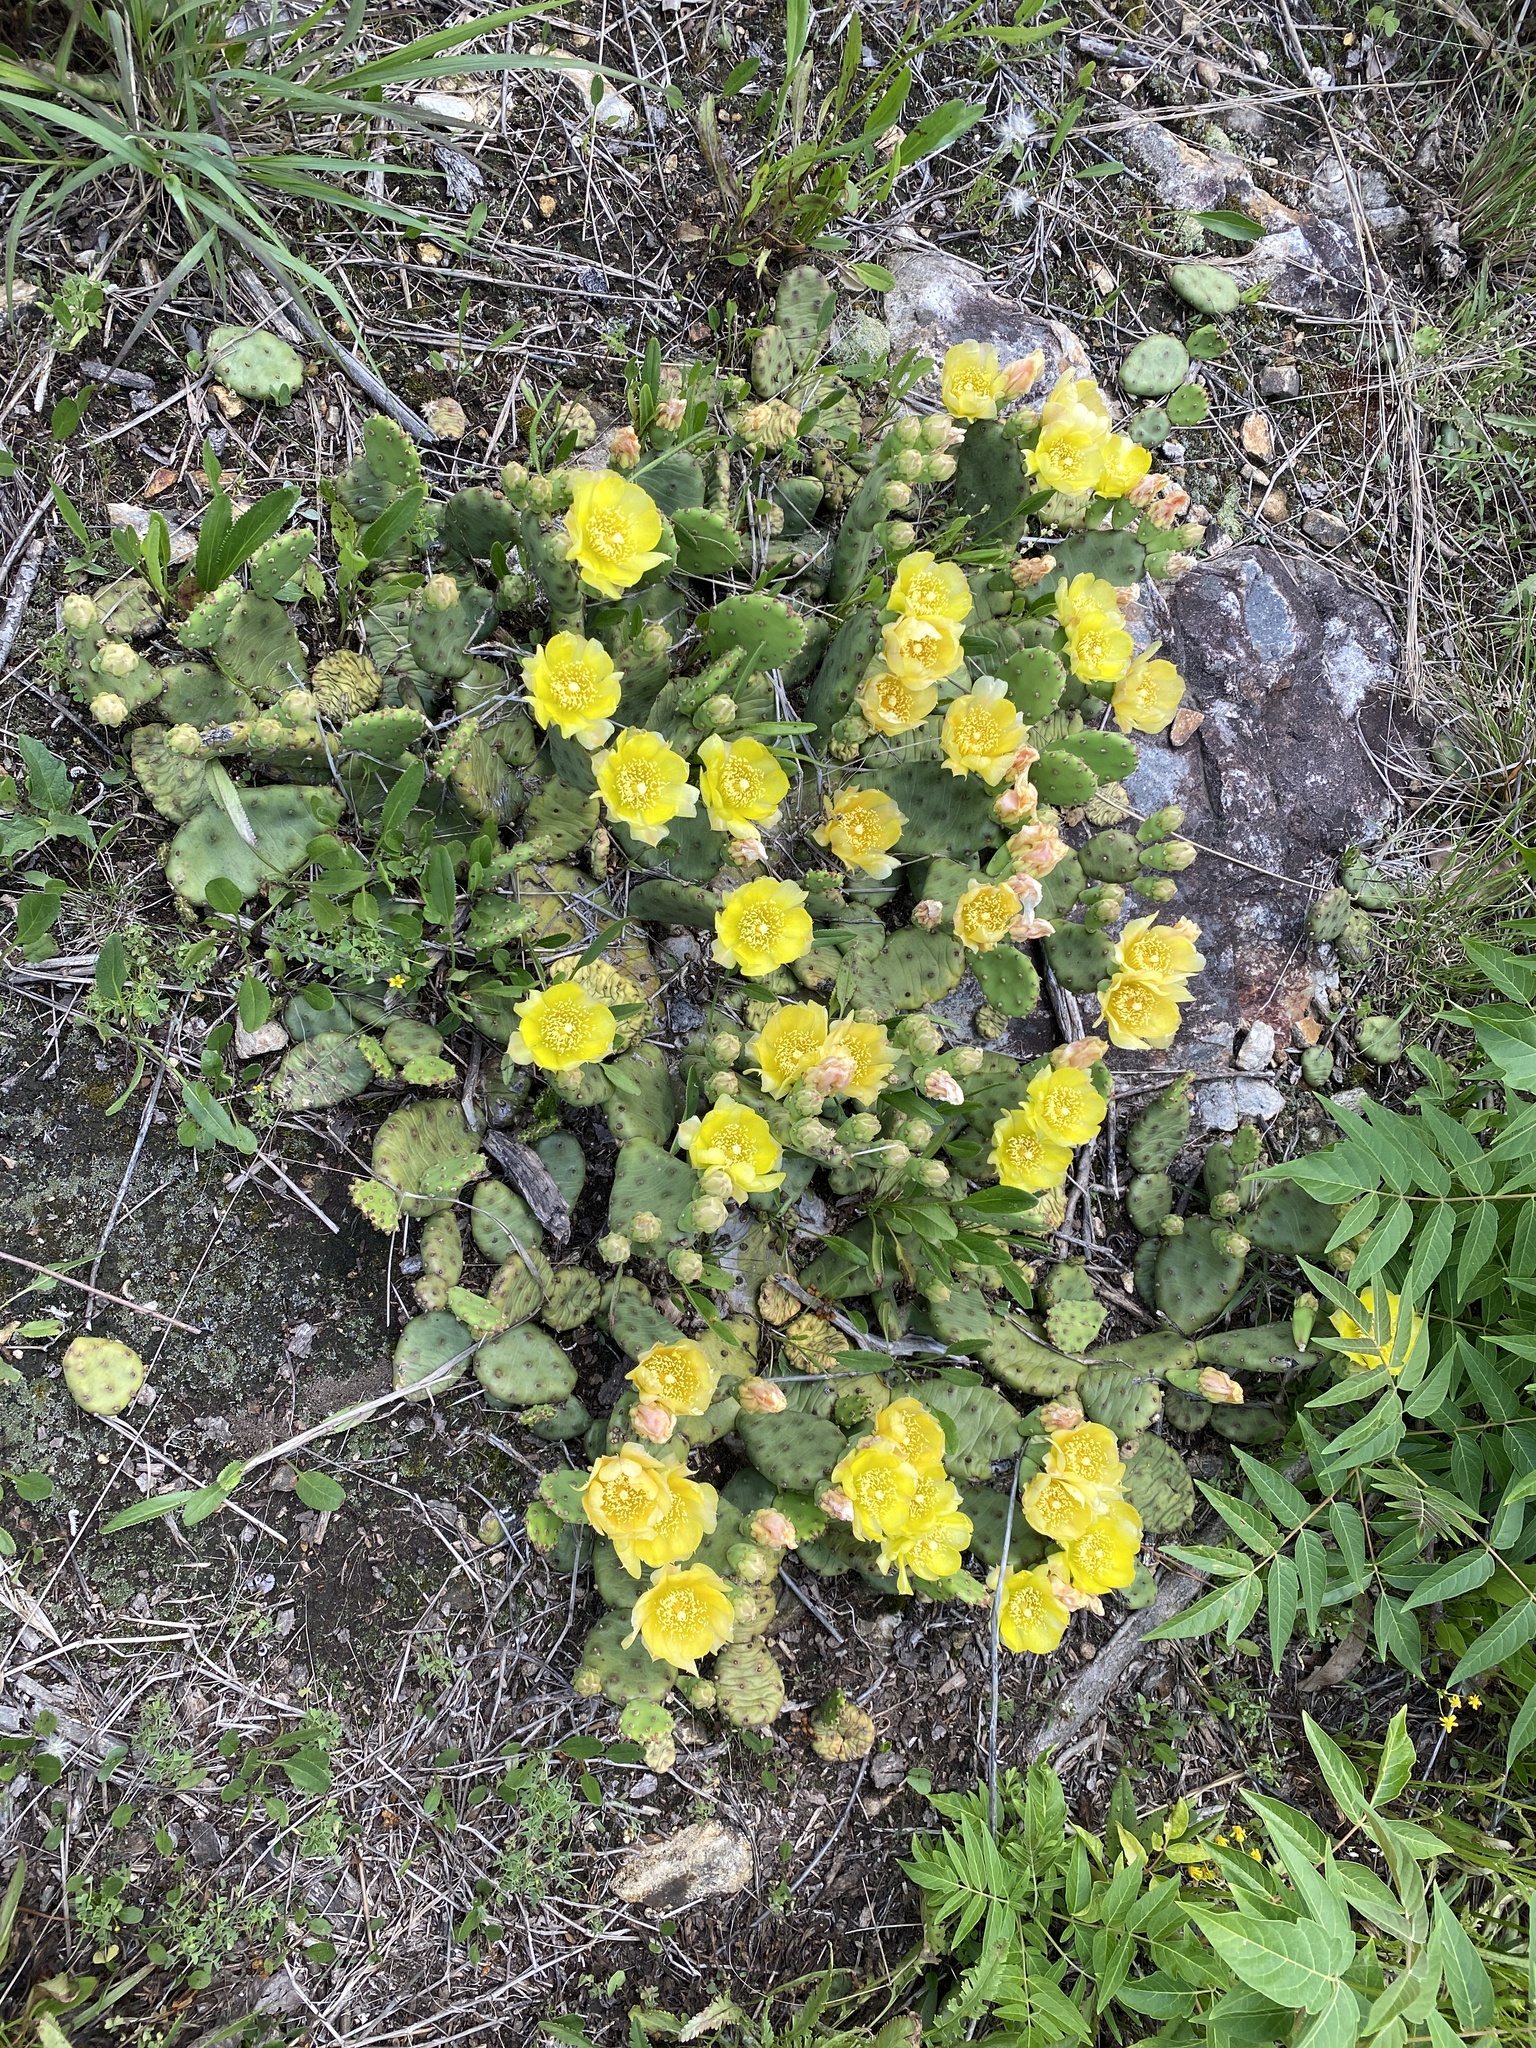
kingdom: Plantae
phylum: Tracheophyta
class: Magnoliopsida
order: Caryophyllales
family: Cactaceae
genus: Opuntia
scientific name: Opuntia mesacantha
